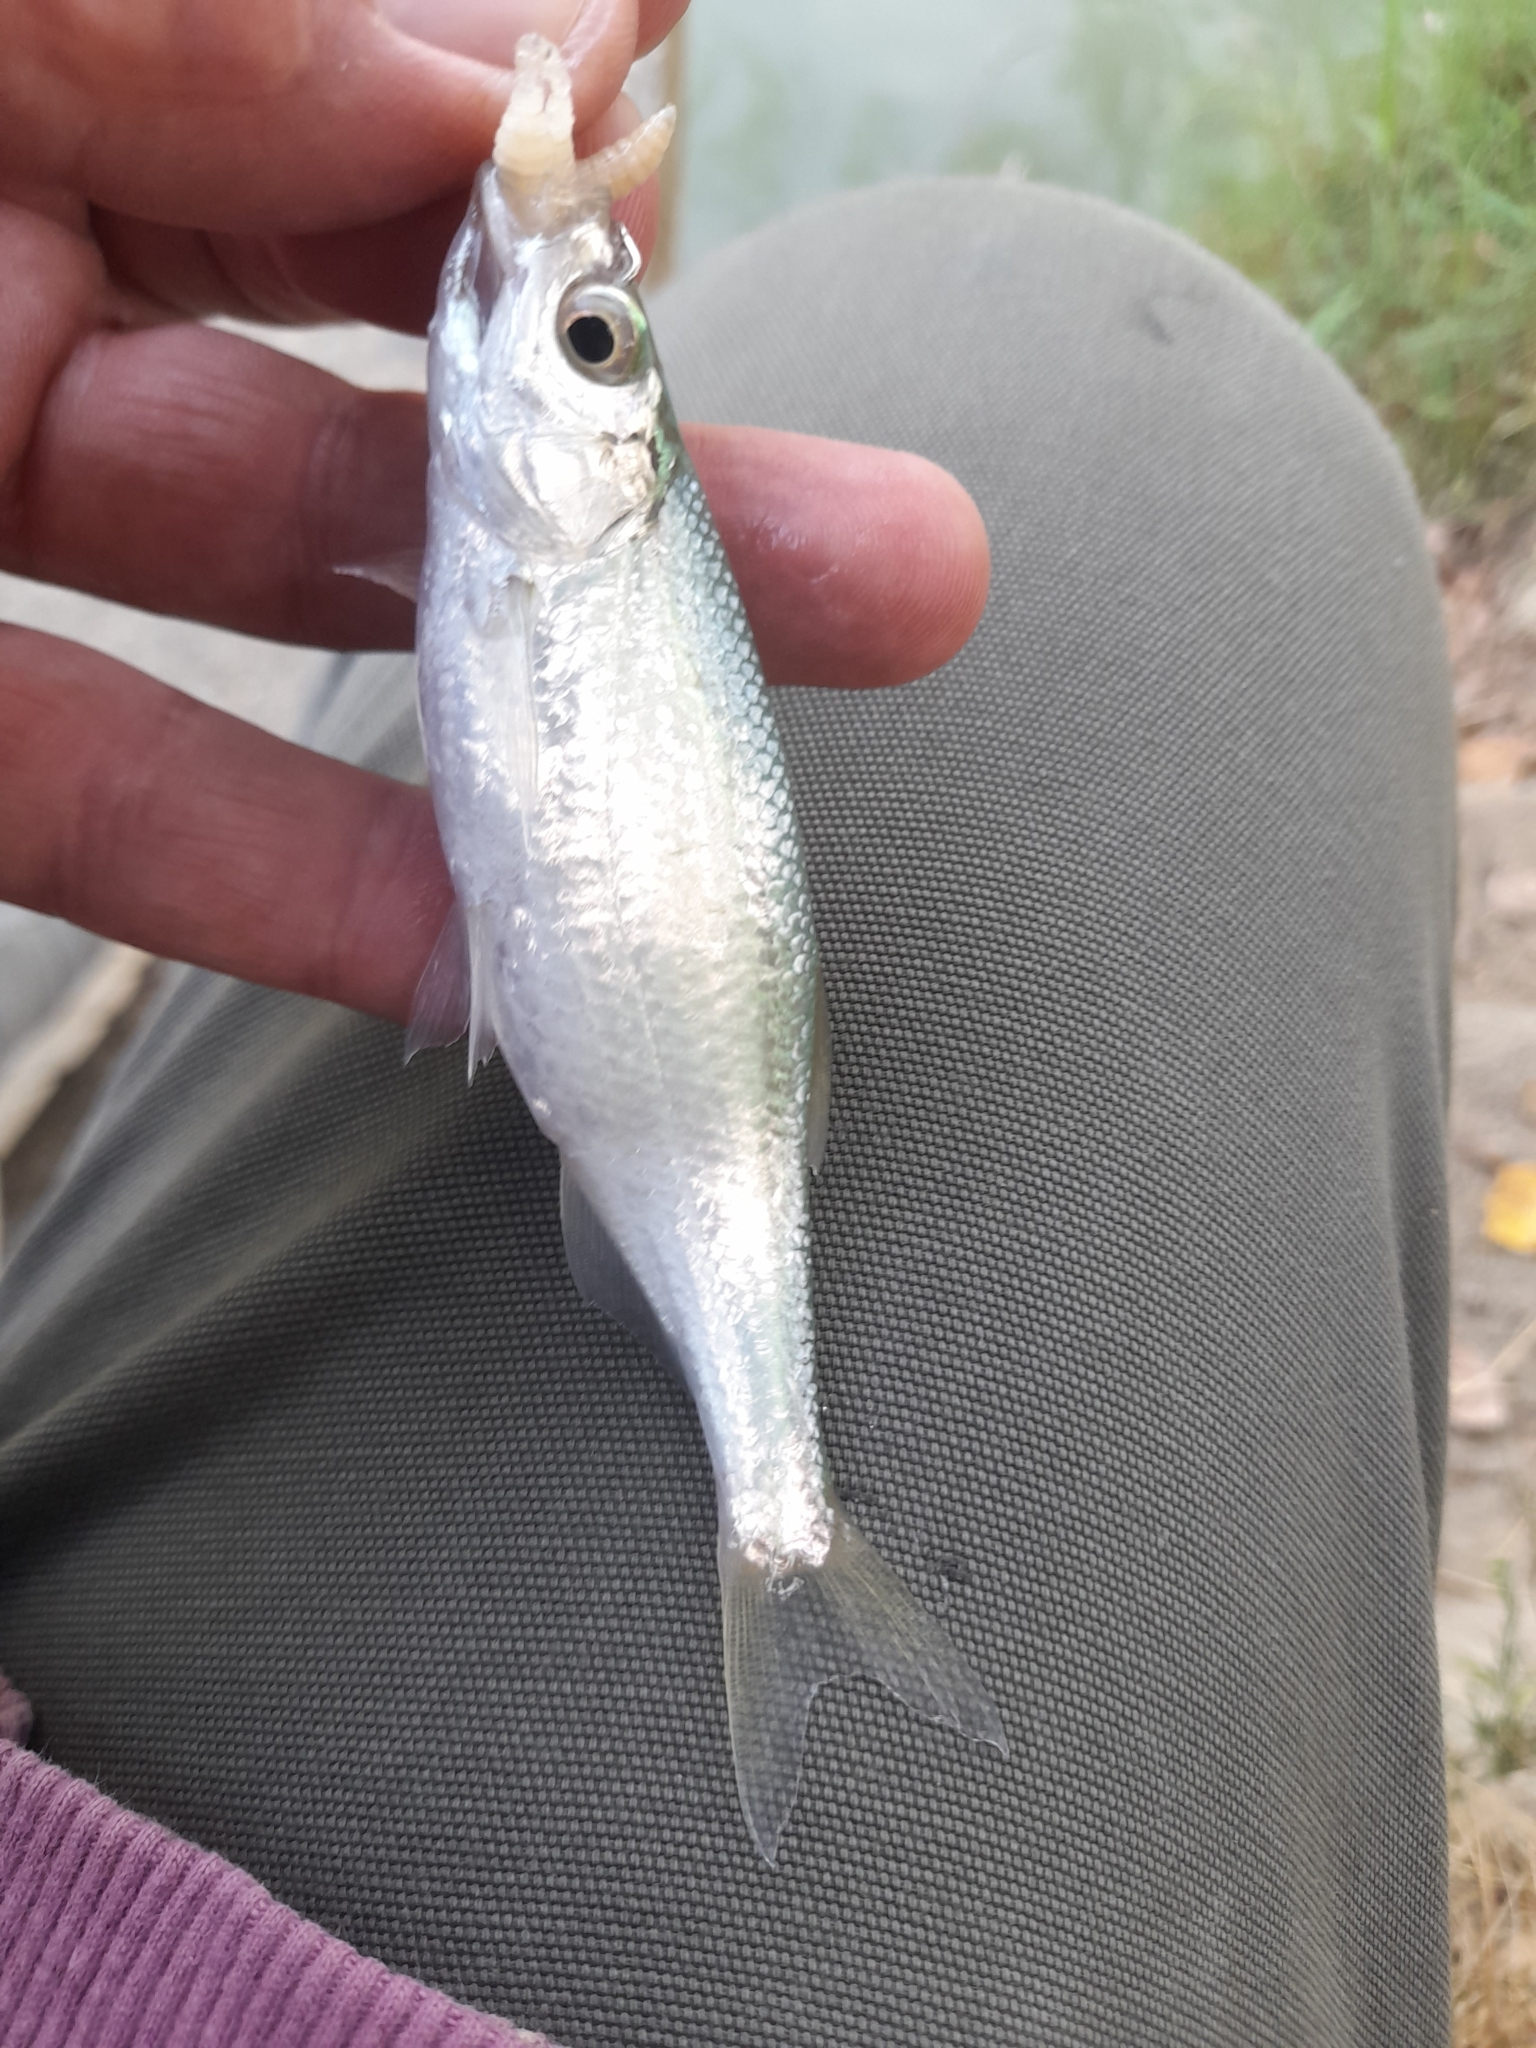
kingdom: Animalia
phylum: Chordata
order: Cypriniformes
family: Cyprinidae
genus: Alburnus
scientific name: Alburnus arborella
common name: Alborella
